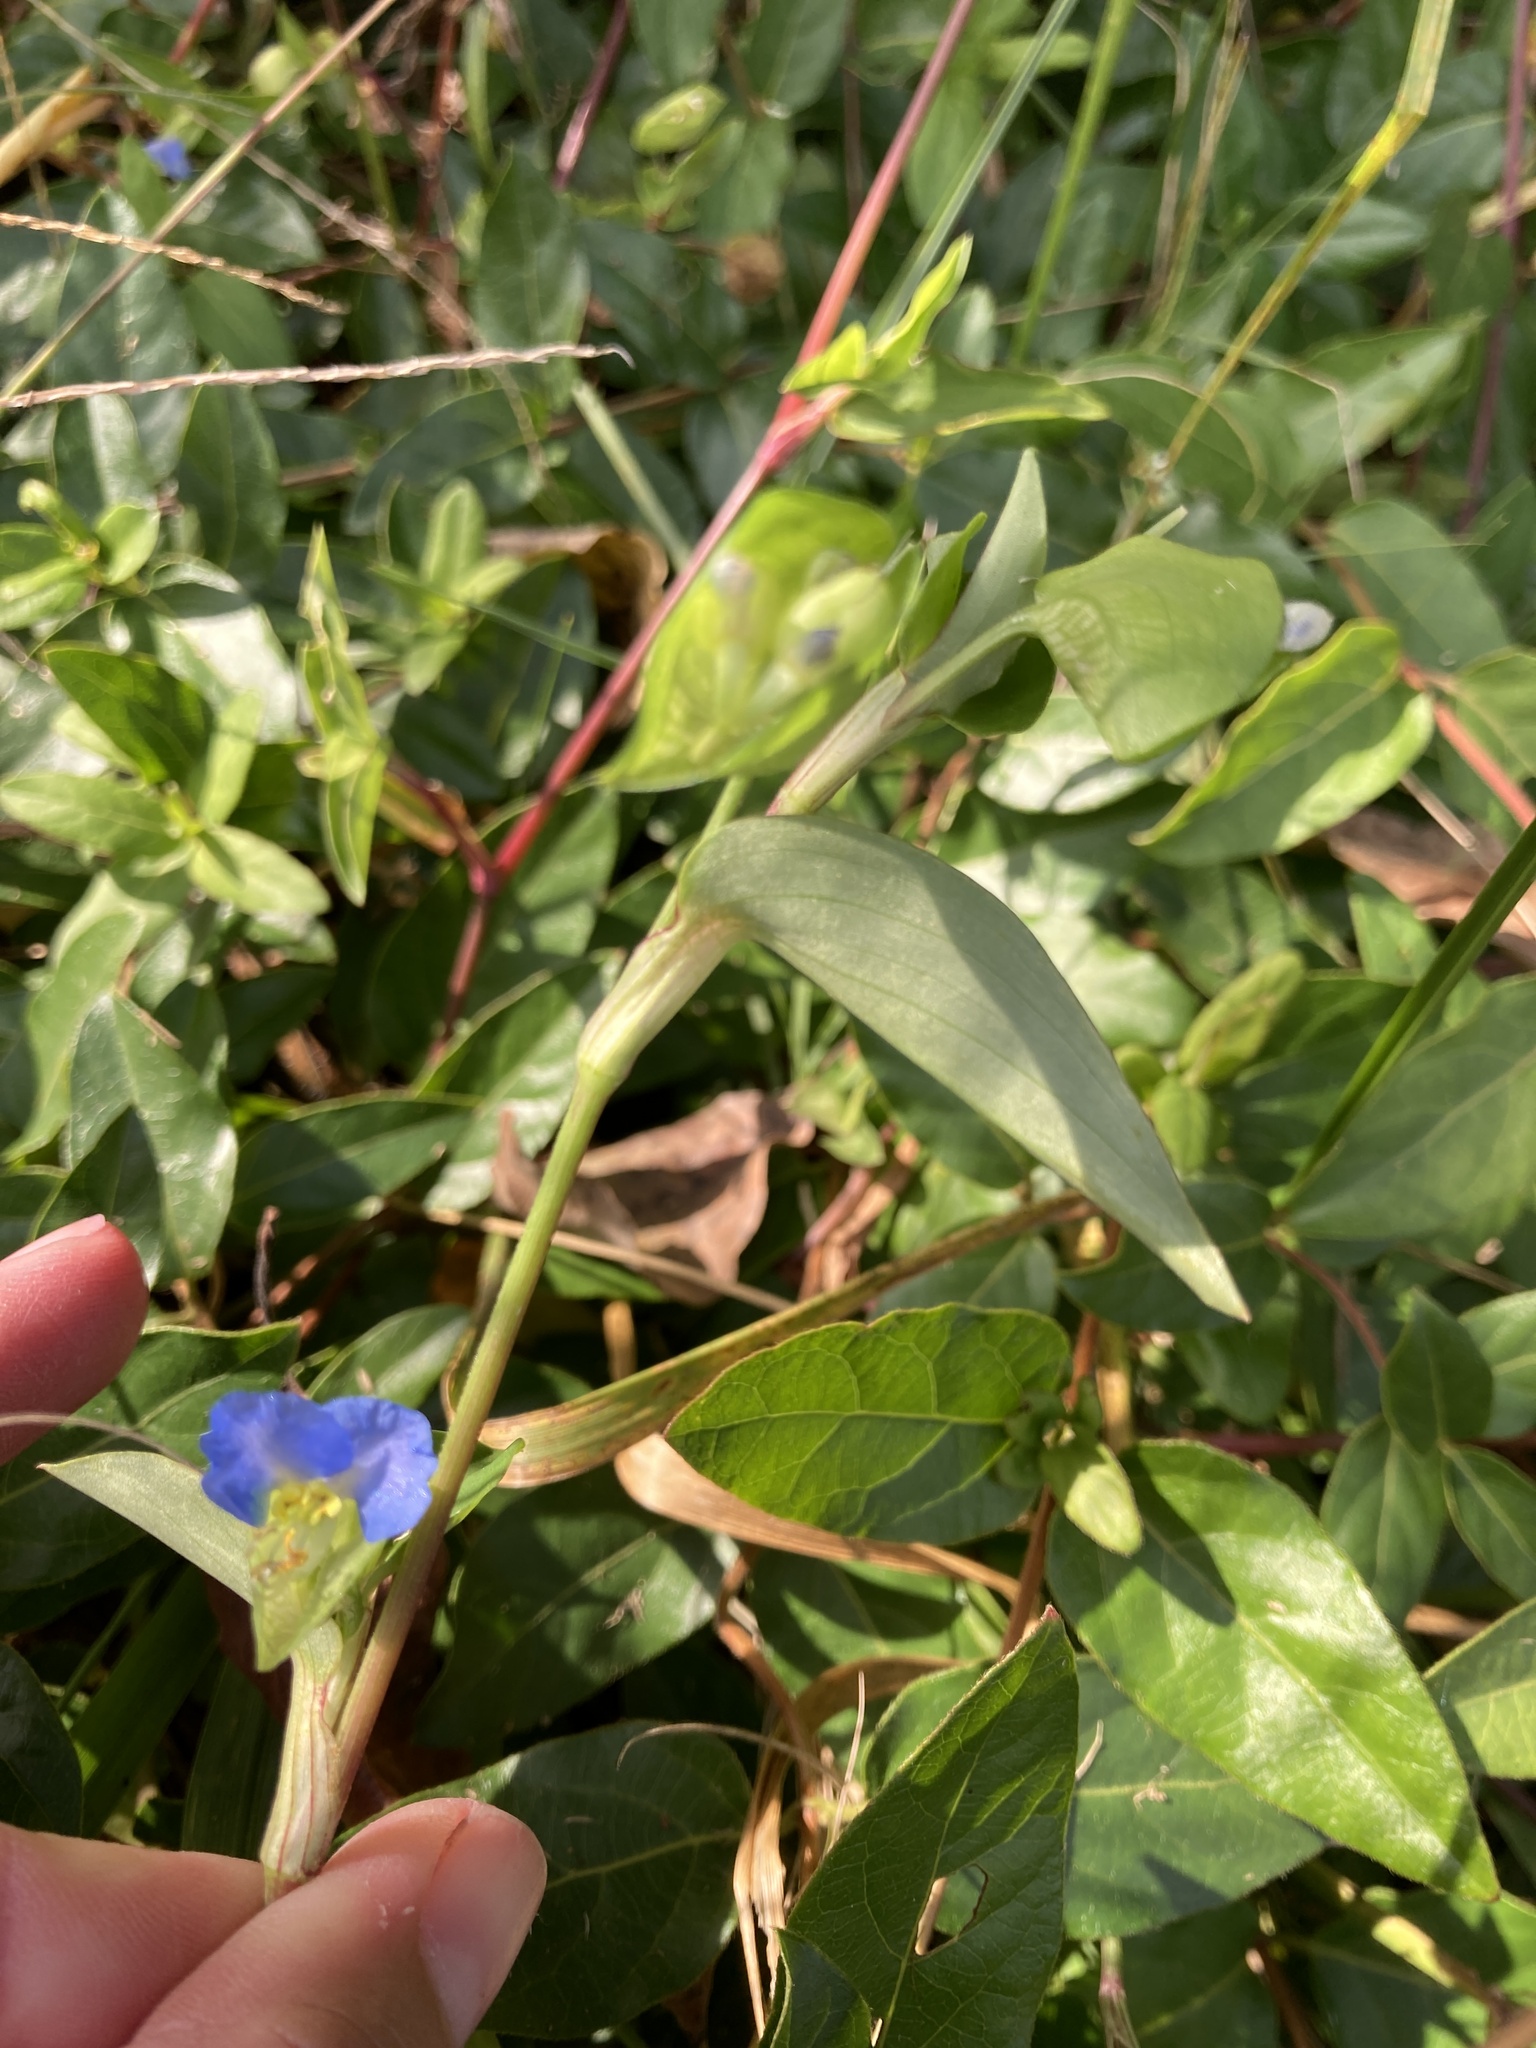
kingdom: Plantae
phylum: Tracheophyta
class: Liliopsida
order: Commelinales
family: Commelinaceae
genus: Commelina
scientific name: Commelina communis
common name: Asiatic dayflower
